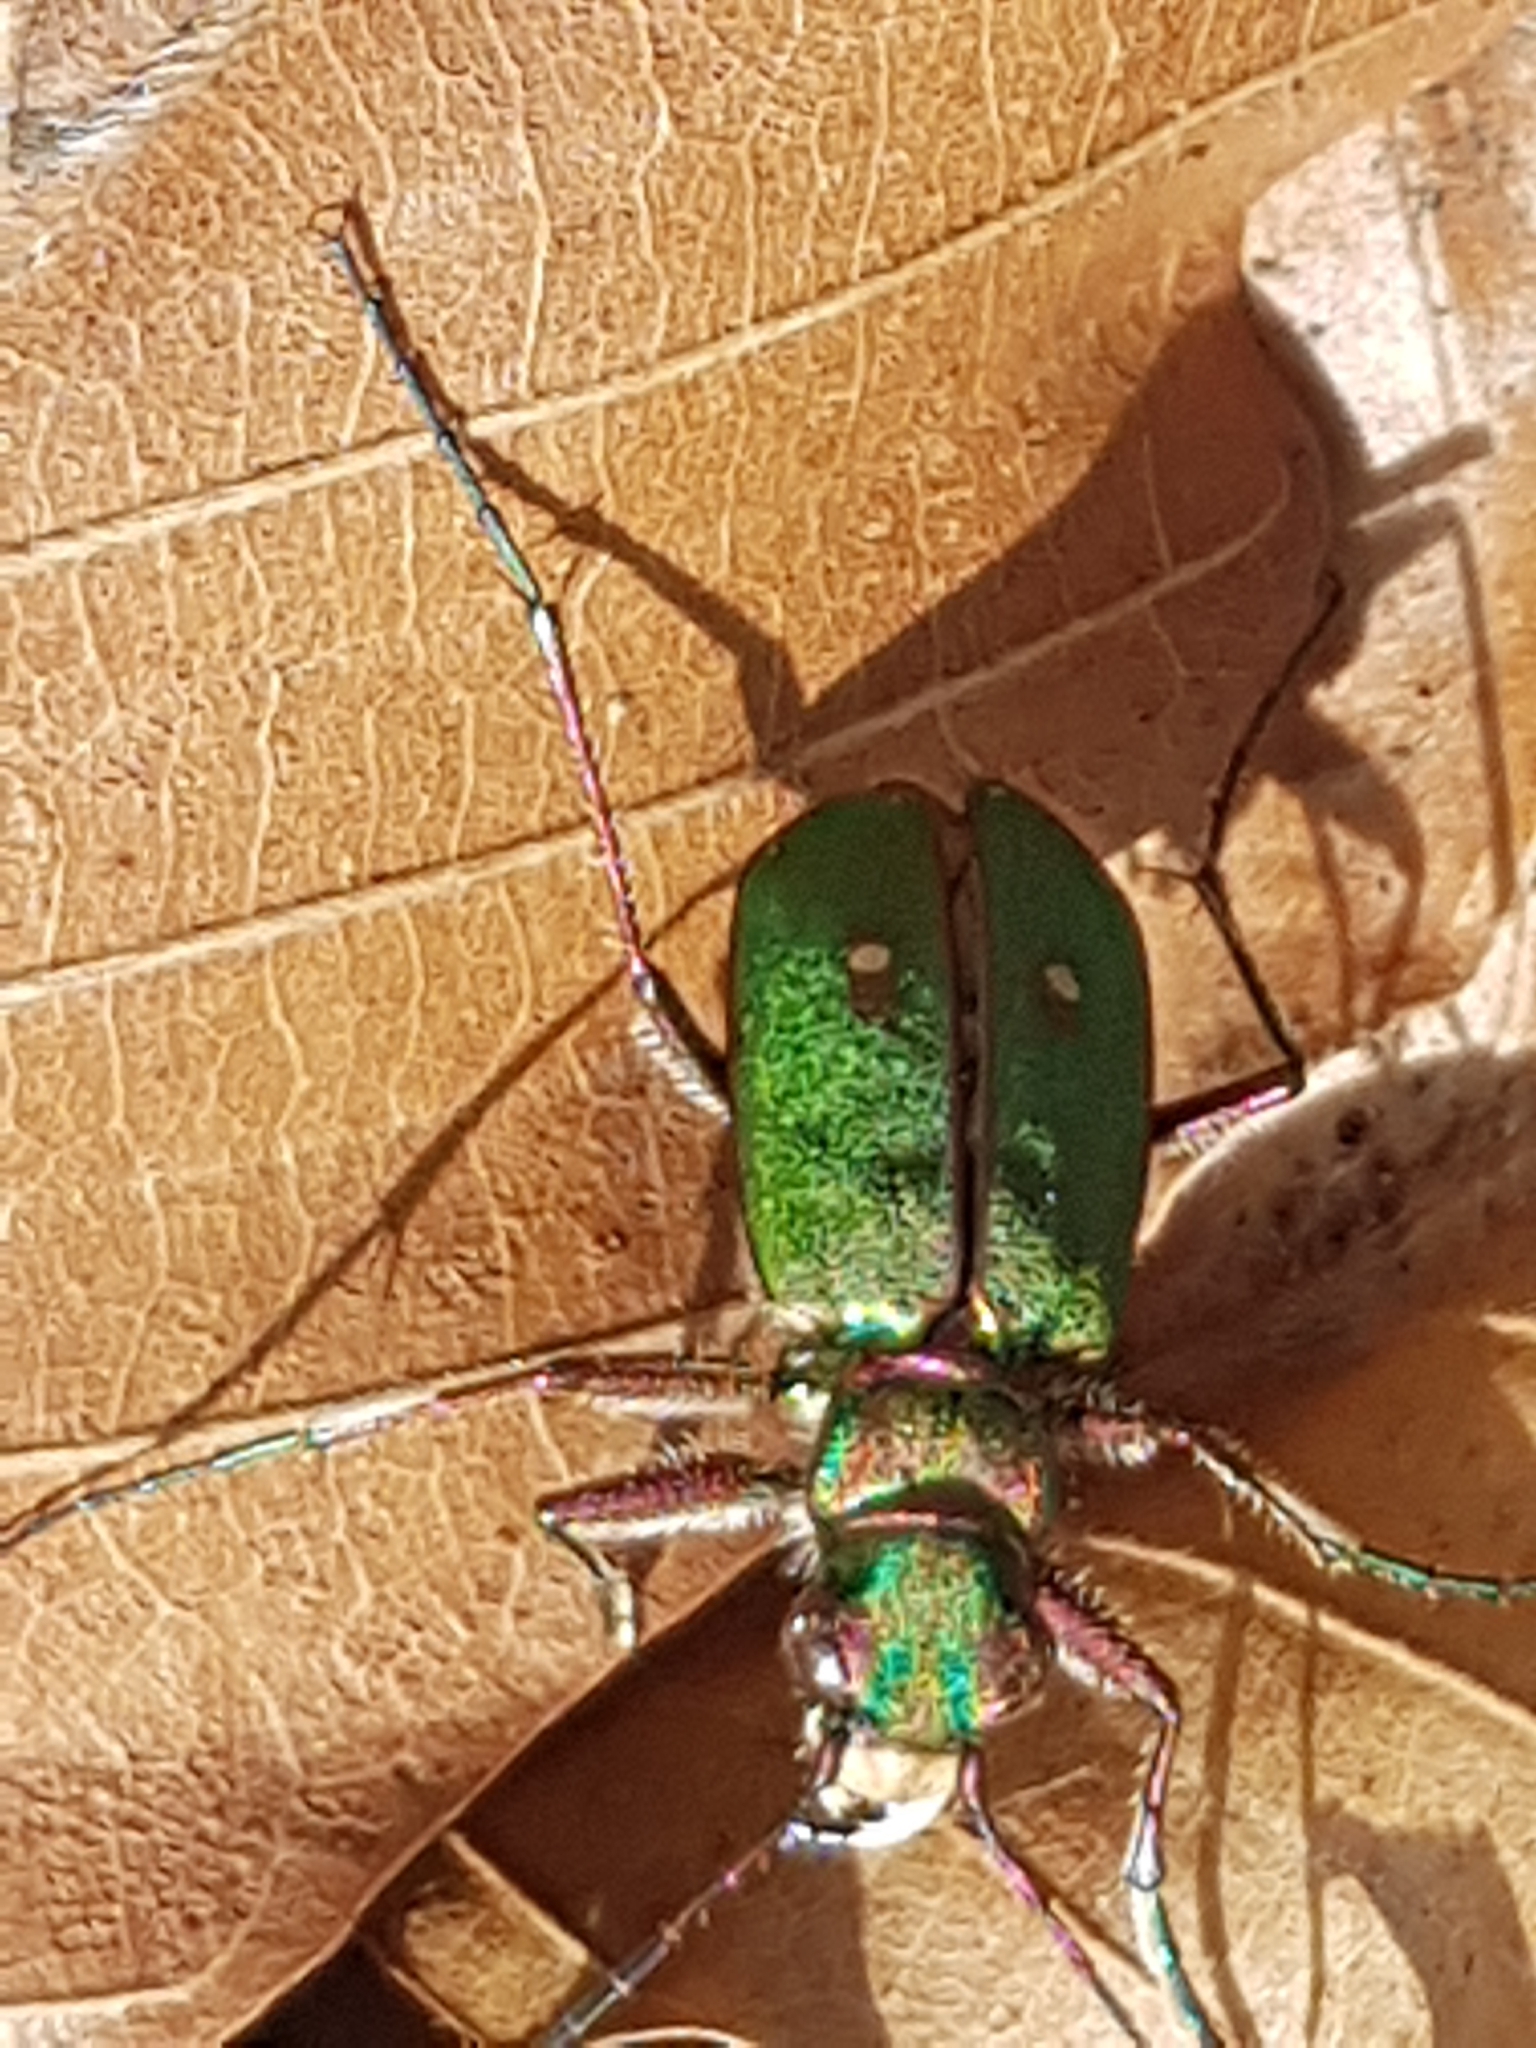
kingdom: Animalia
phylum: Arthropoda
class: Insecta
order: Coleoptera
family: Carabidae
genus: Cicindela
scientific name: Cicindela campestris
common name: Common tiger beetle
